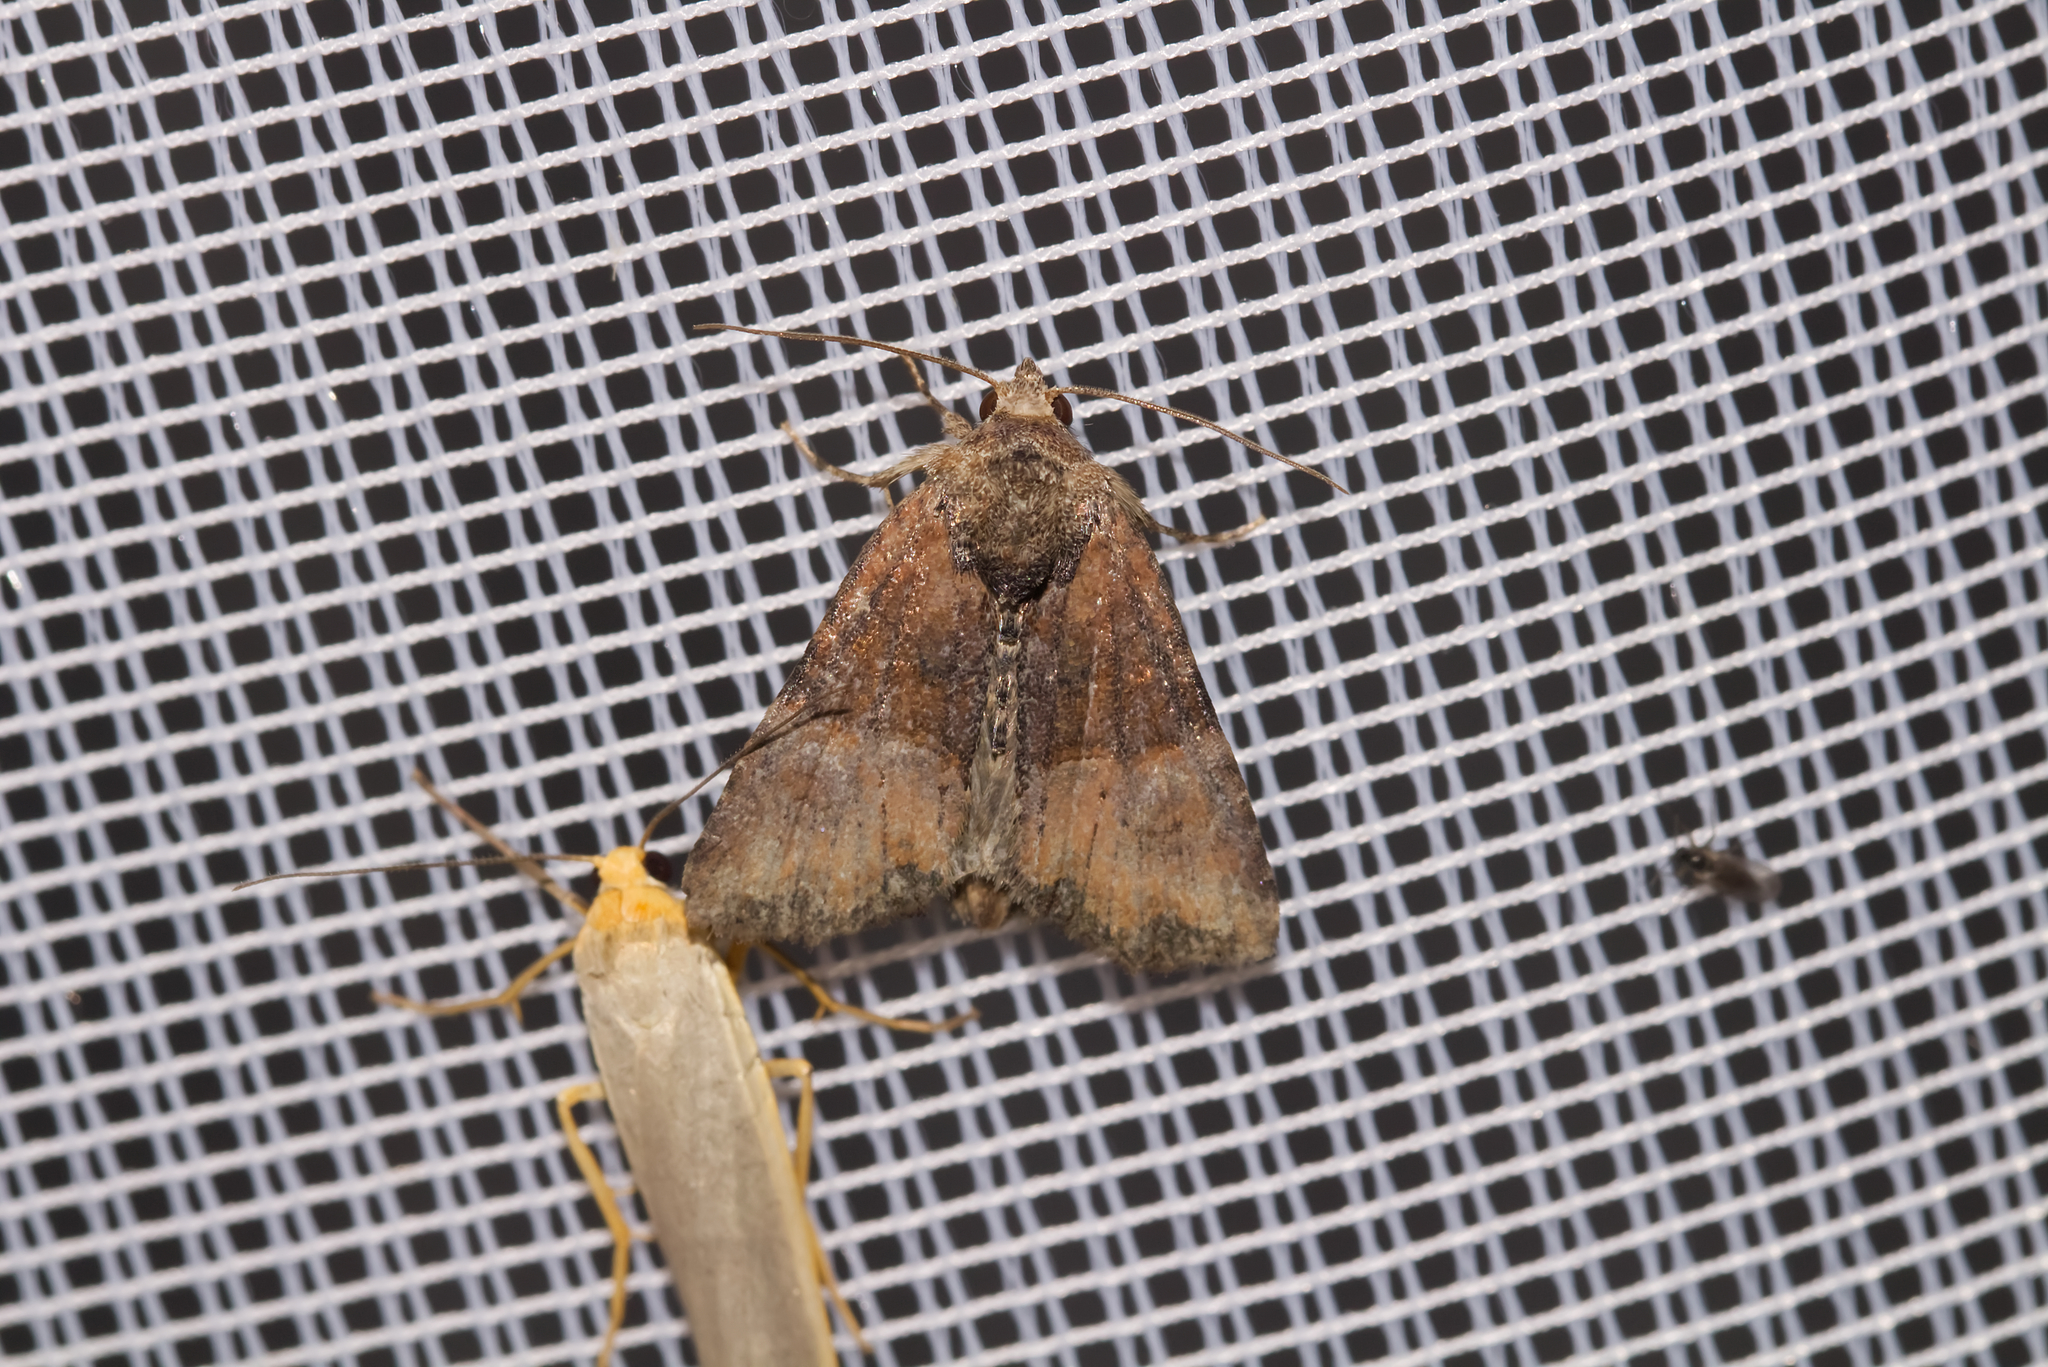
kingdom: Animalia
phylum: Arthropoda
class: Insecta
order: Lepidoptera
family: Noctuidae
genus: Mesoligia
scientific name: Mesoligia furuncula
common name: Cloaked minor
